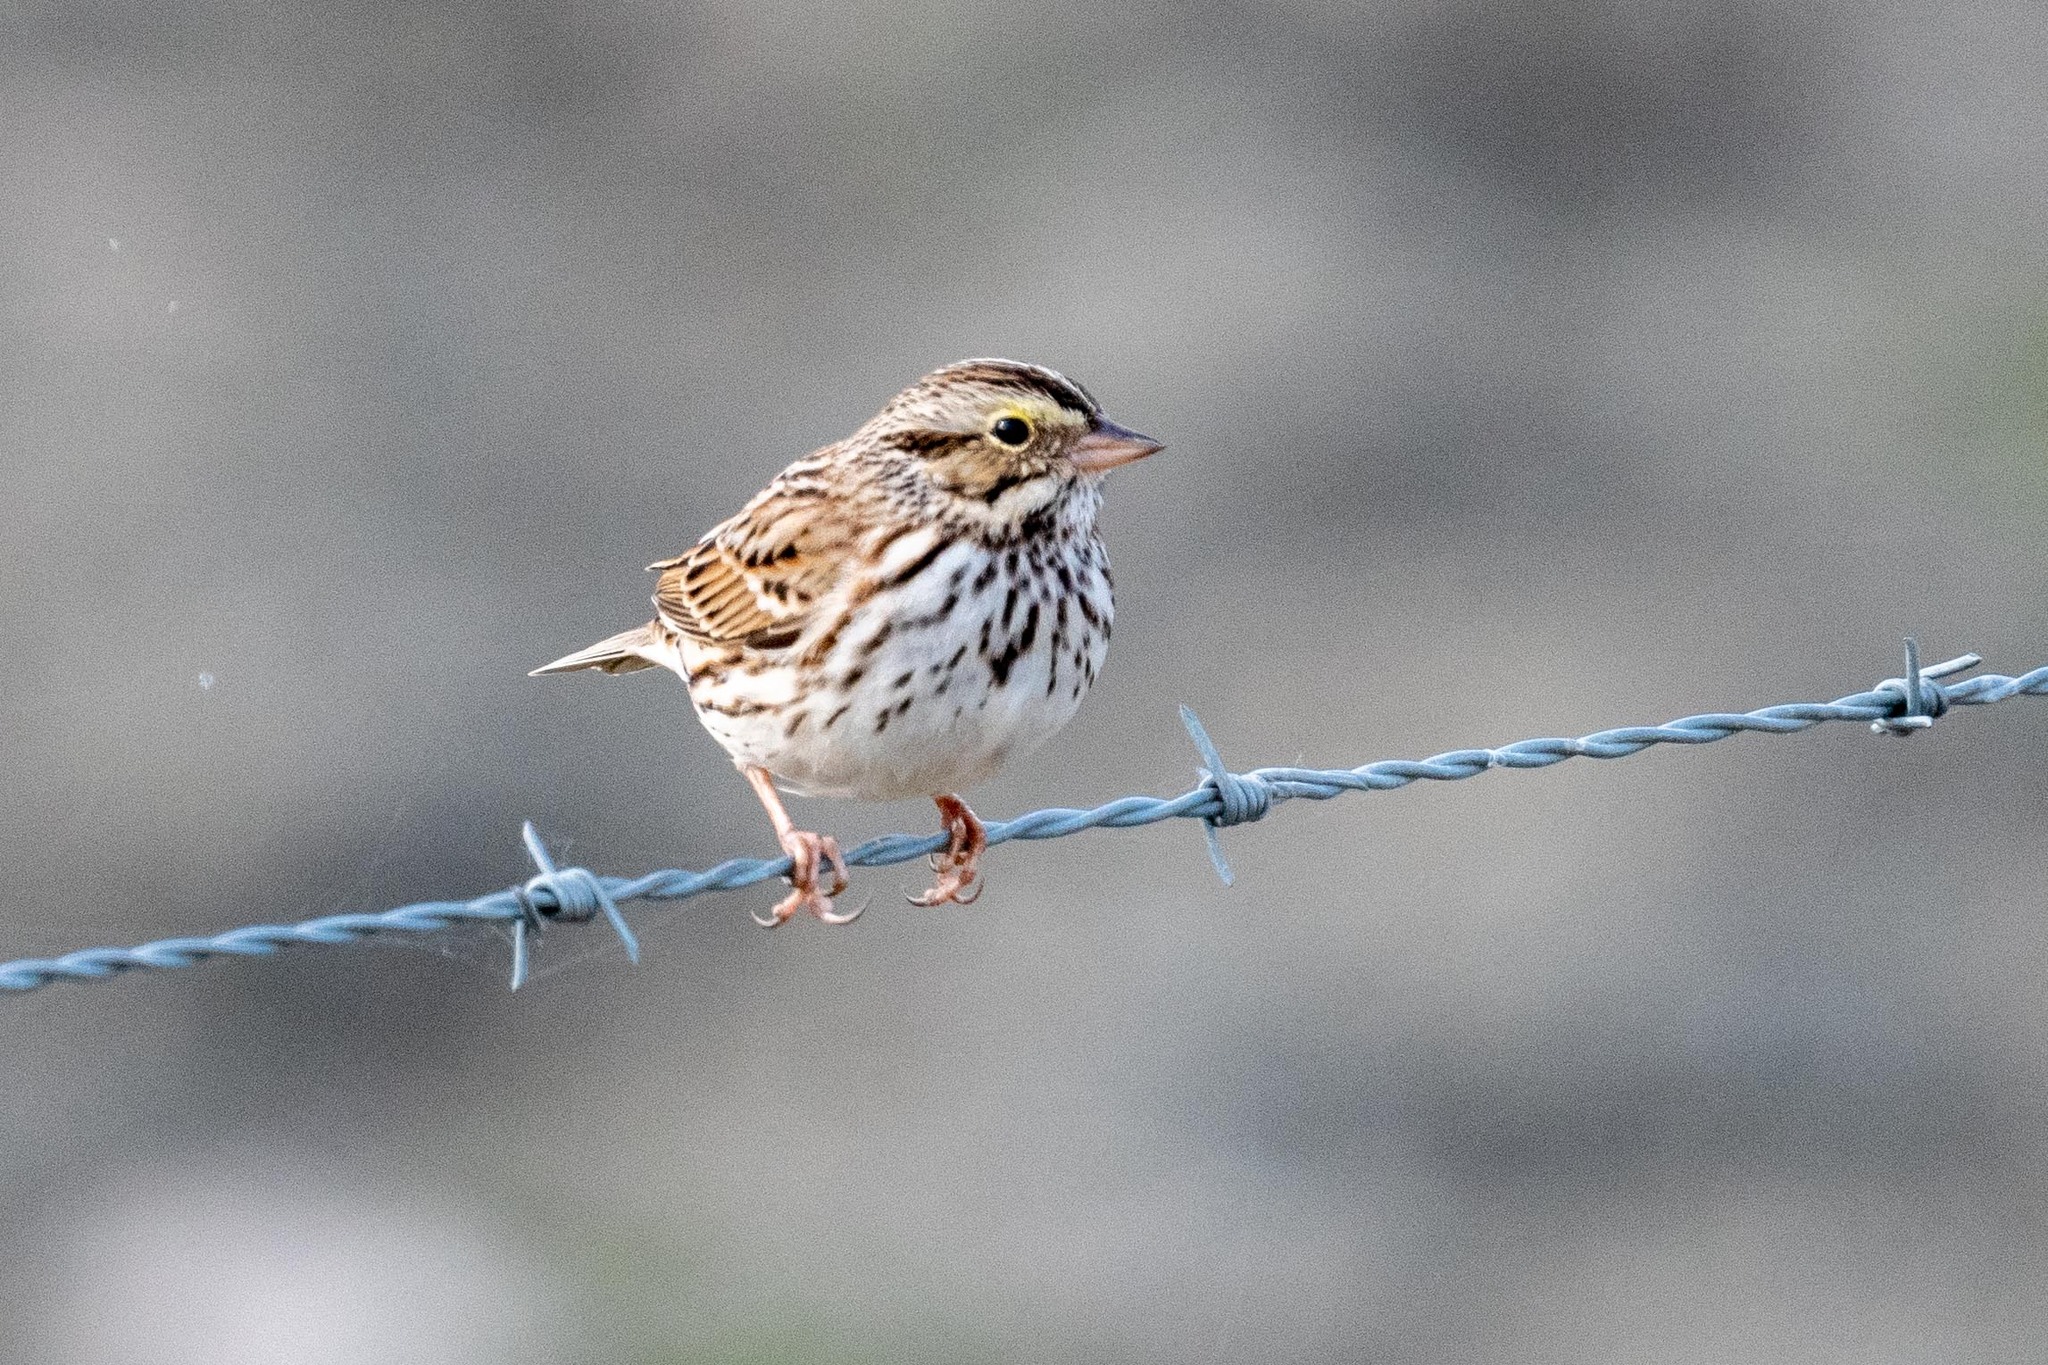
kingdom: Animalia
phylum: Chordata
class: Aves
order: Passeriformes
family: Passerellidae
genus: Passerculus
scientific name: Passerculus sandwichensis
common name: Savannah sparrow
